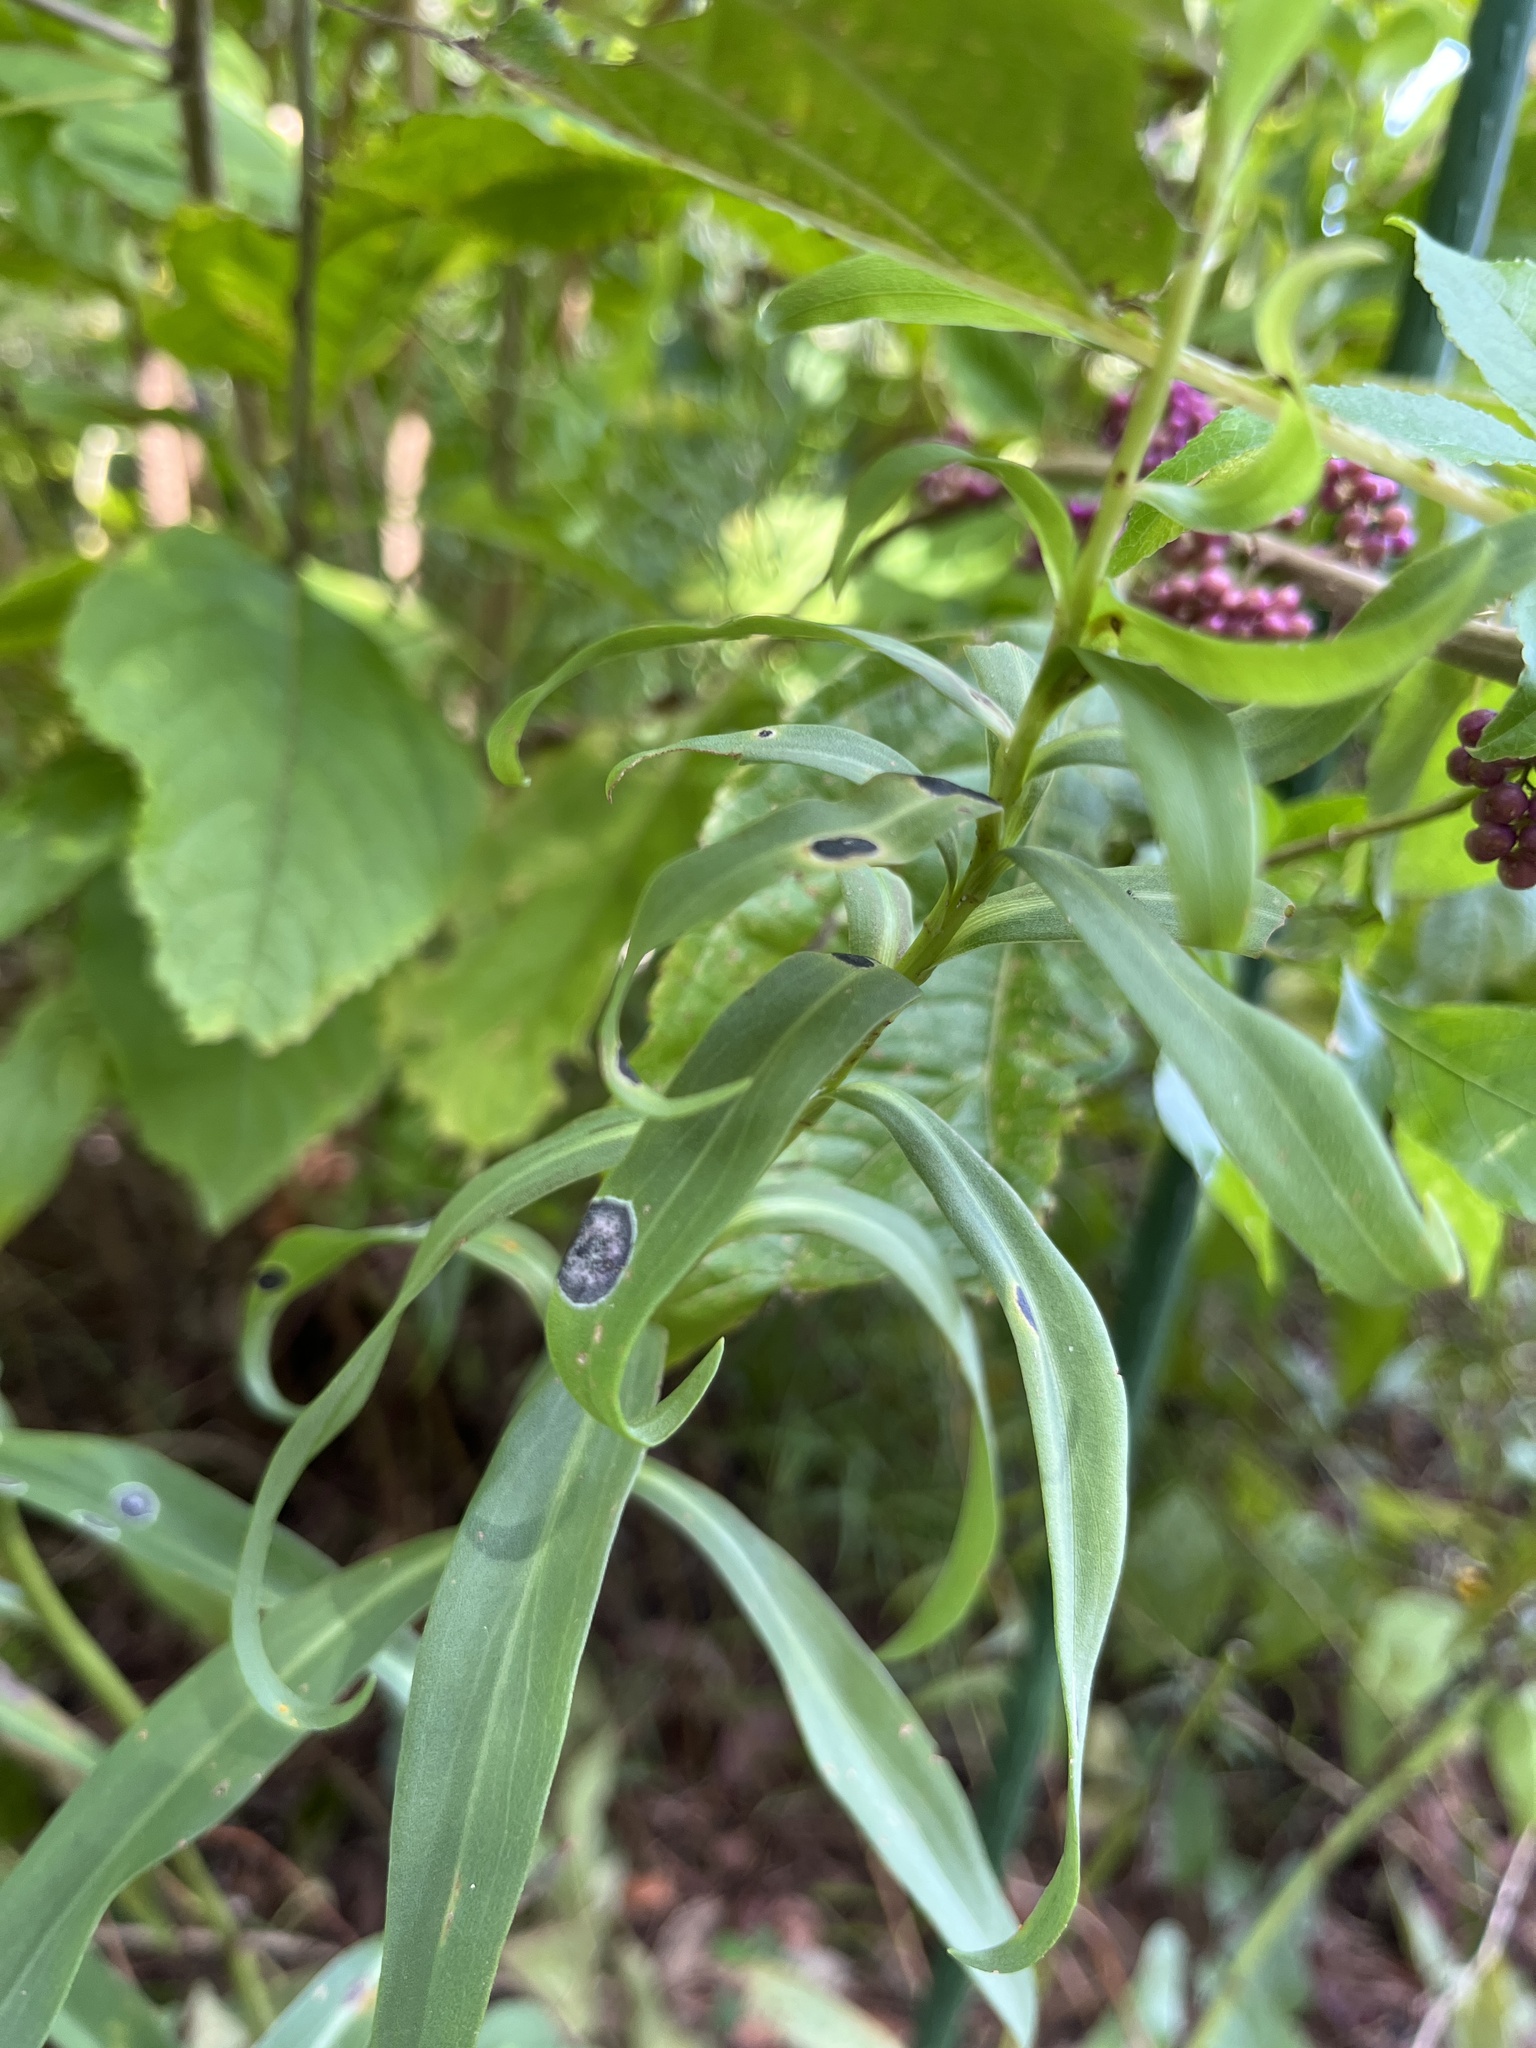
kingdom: Animalia
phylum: Arthropoda
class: Insecta
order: Diptera
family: Cecidomyiidae
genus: Asteromyia
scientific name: Asteromyia carbonifera
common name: Carbonifera goldenrod gall midge
